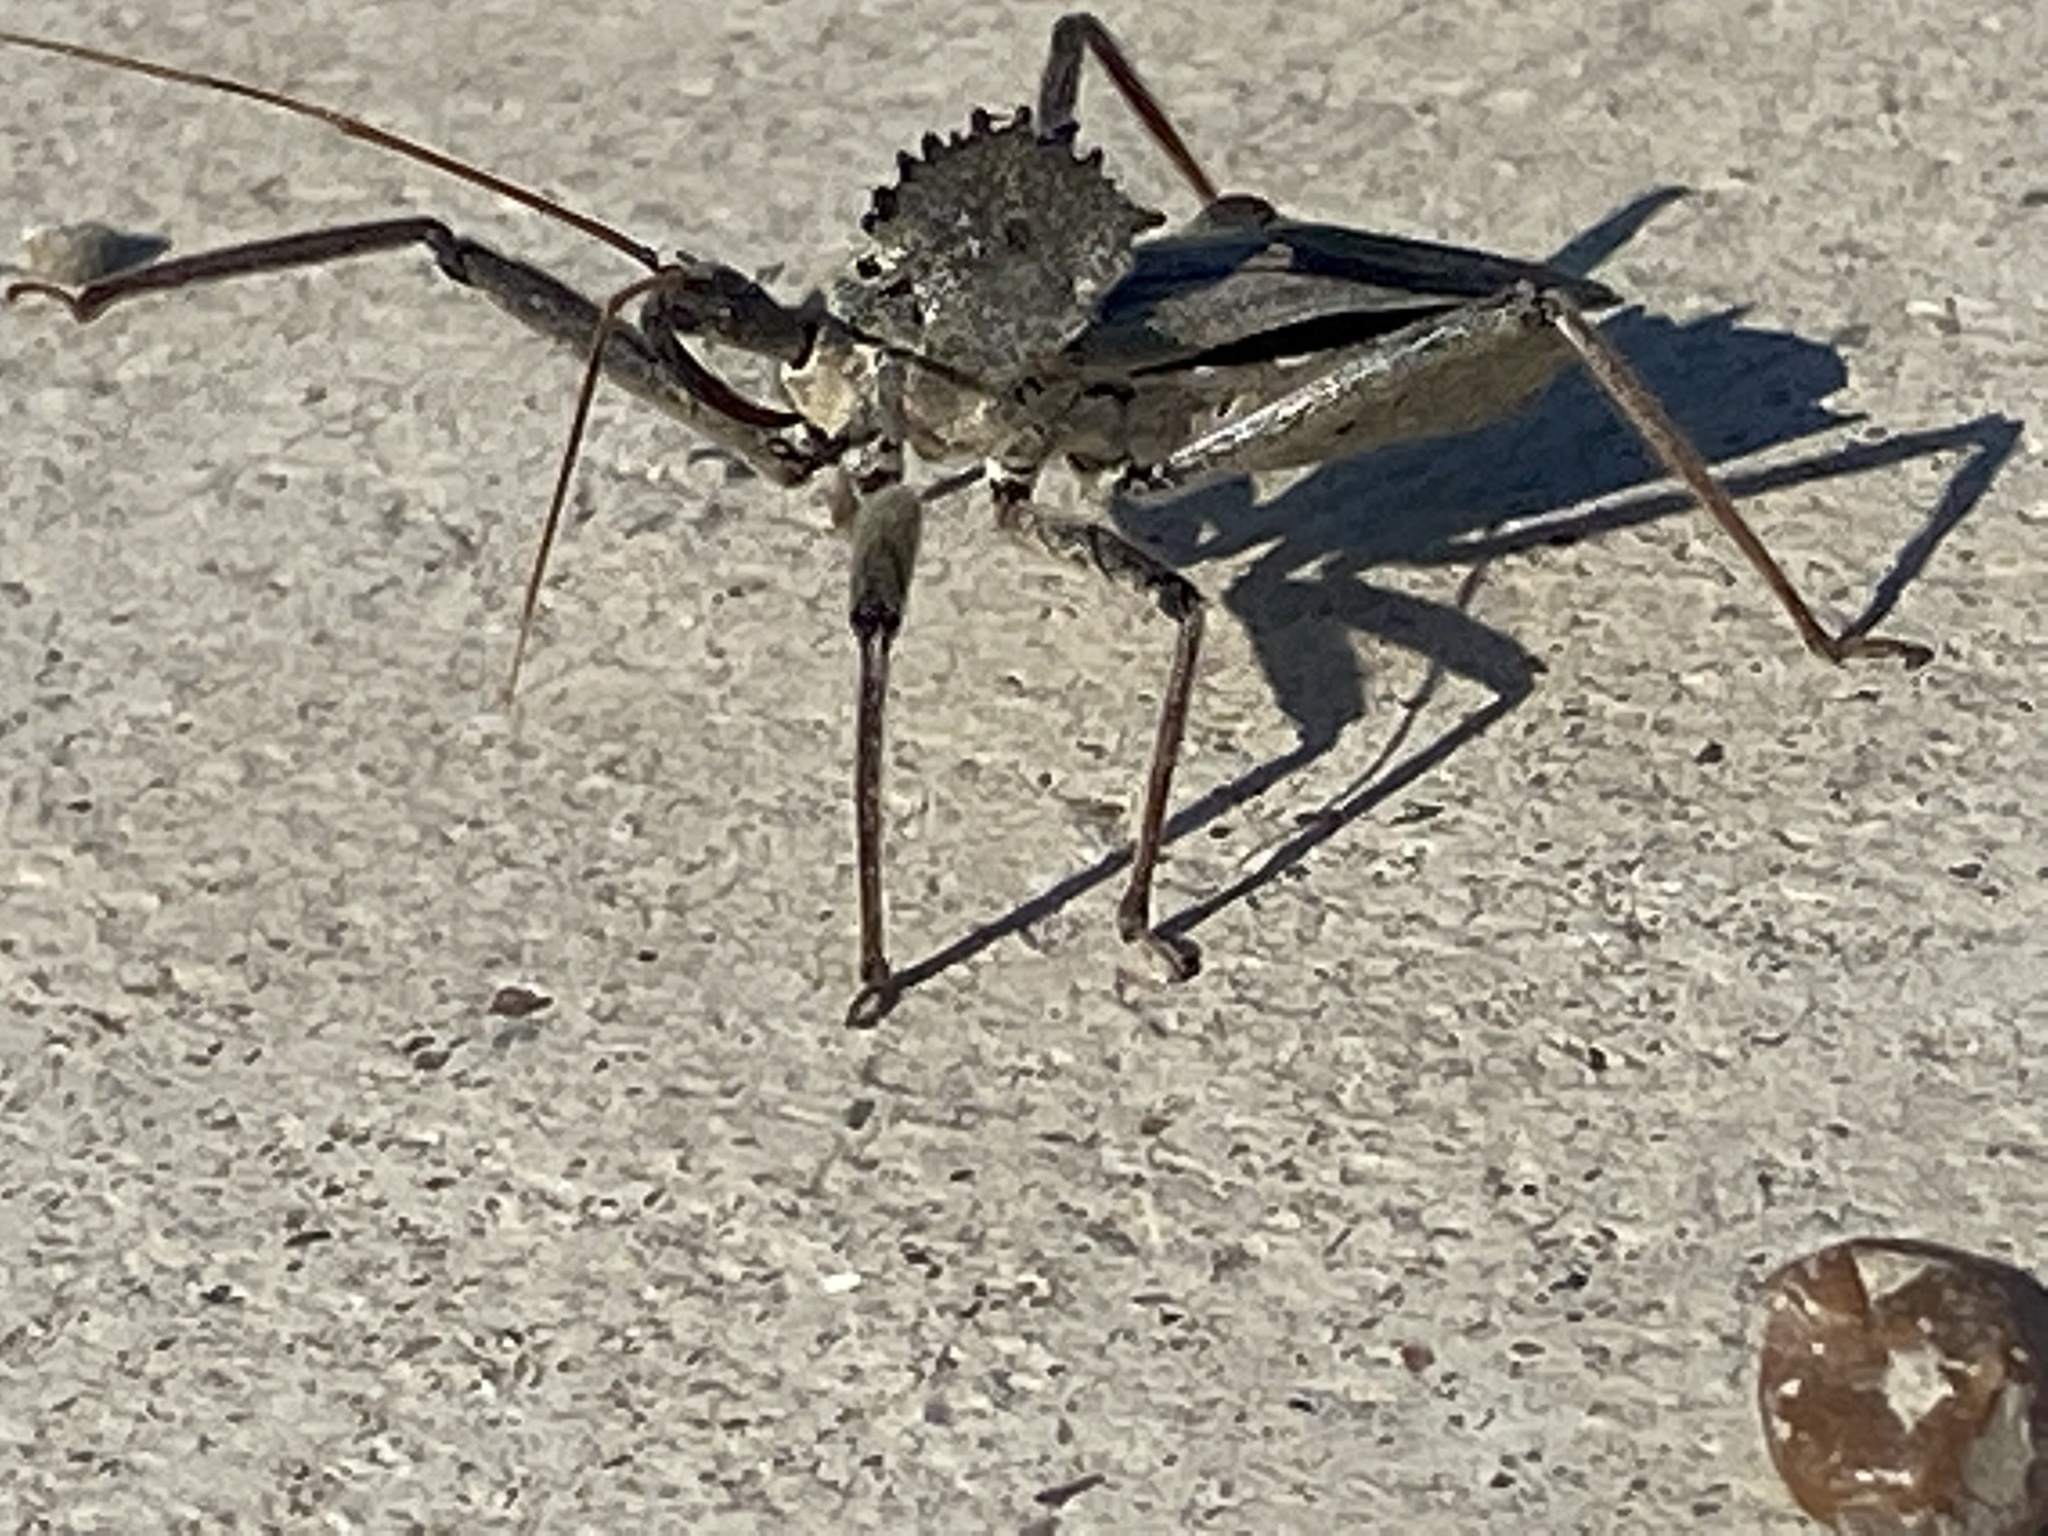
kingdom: Animalia
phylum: Arthropoda
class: Insecta
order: Hemiptera
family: Reduviidae
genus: Arilus
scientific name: Arilus cristatus
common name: North american wheel bug
